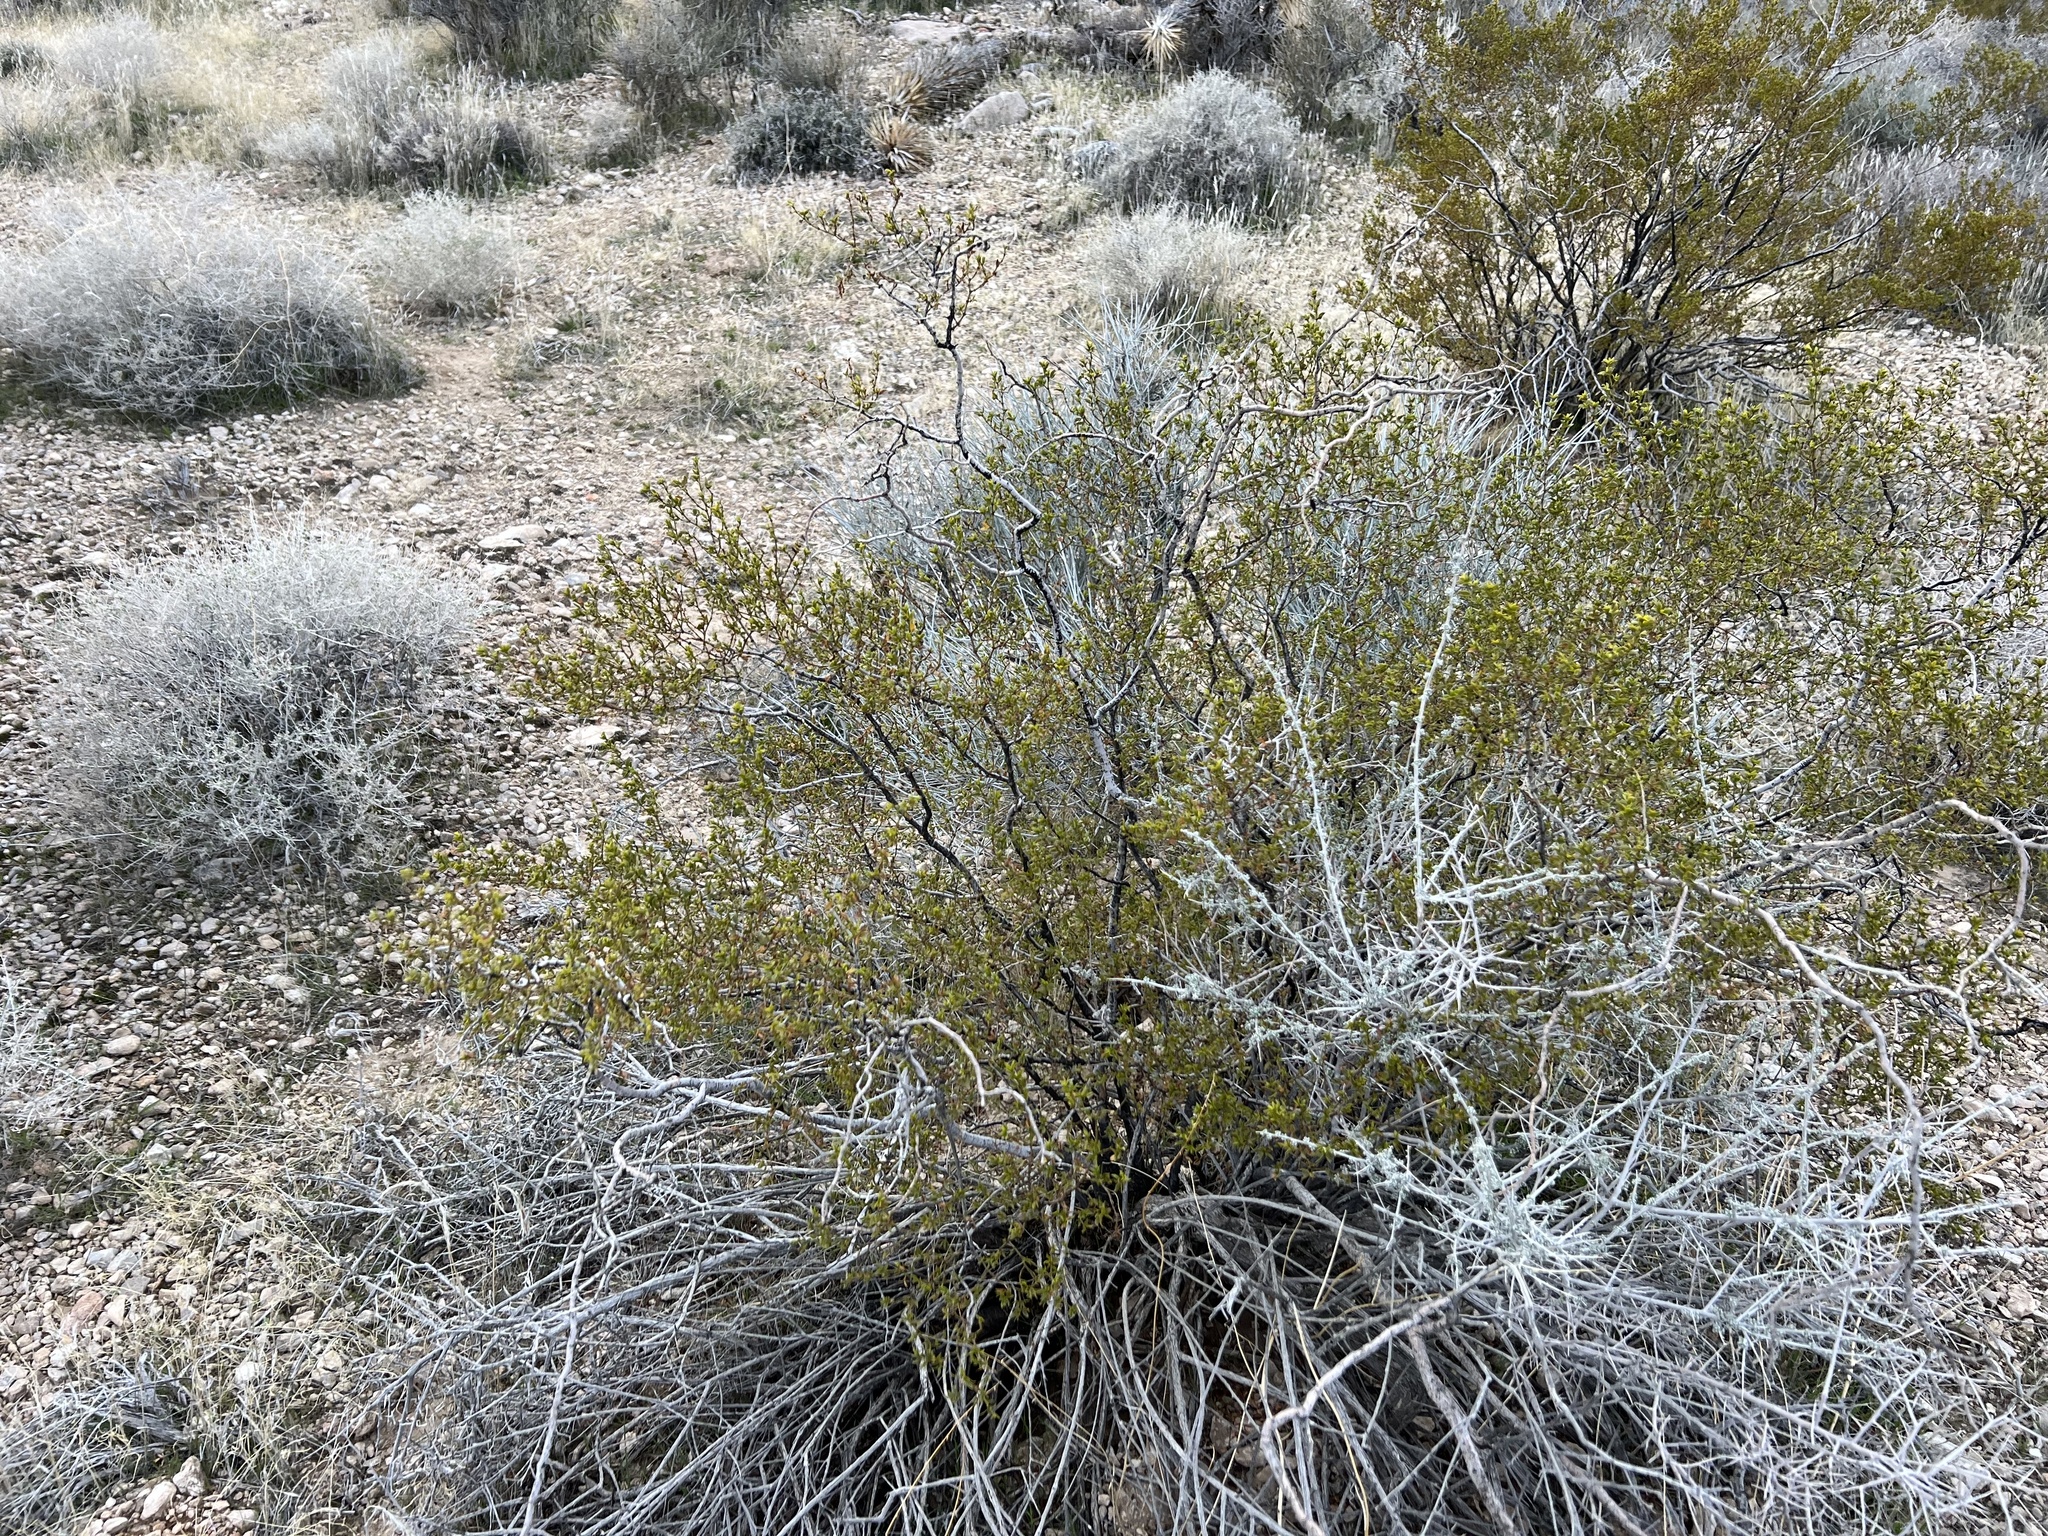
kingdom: Plantae
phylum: Tracheophyta
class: Magnoliopsida
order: Zygophyllales
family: Zygophyllaceae
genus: Larrea
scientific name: Larrea tridentata
